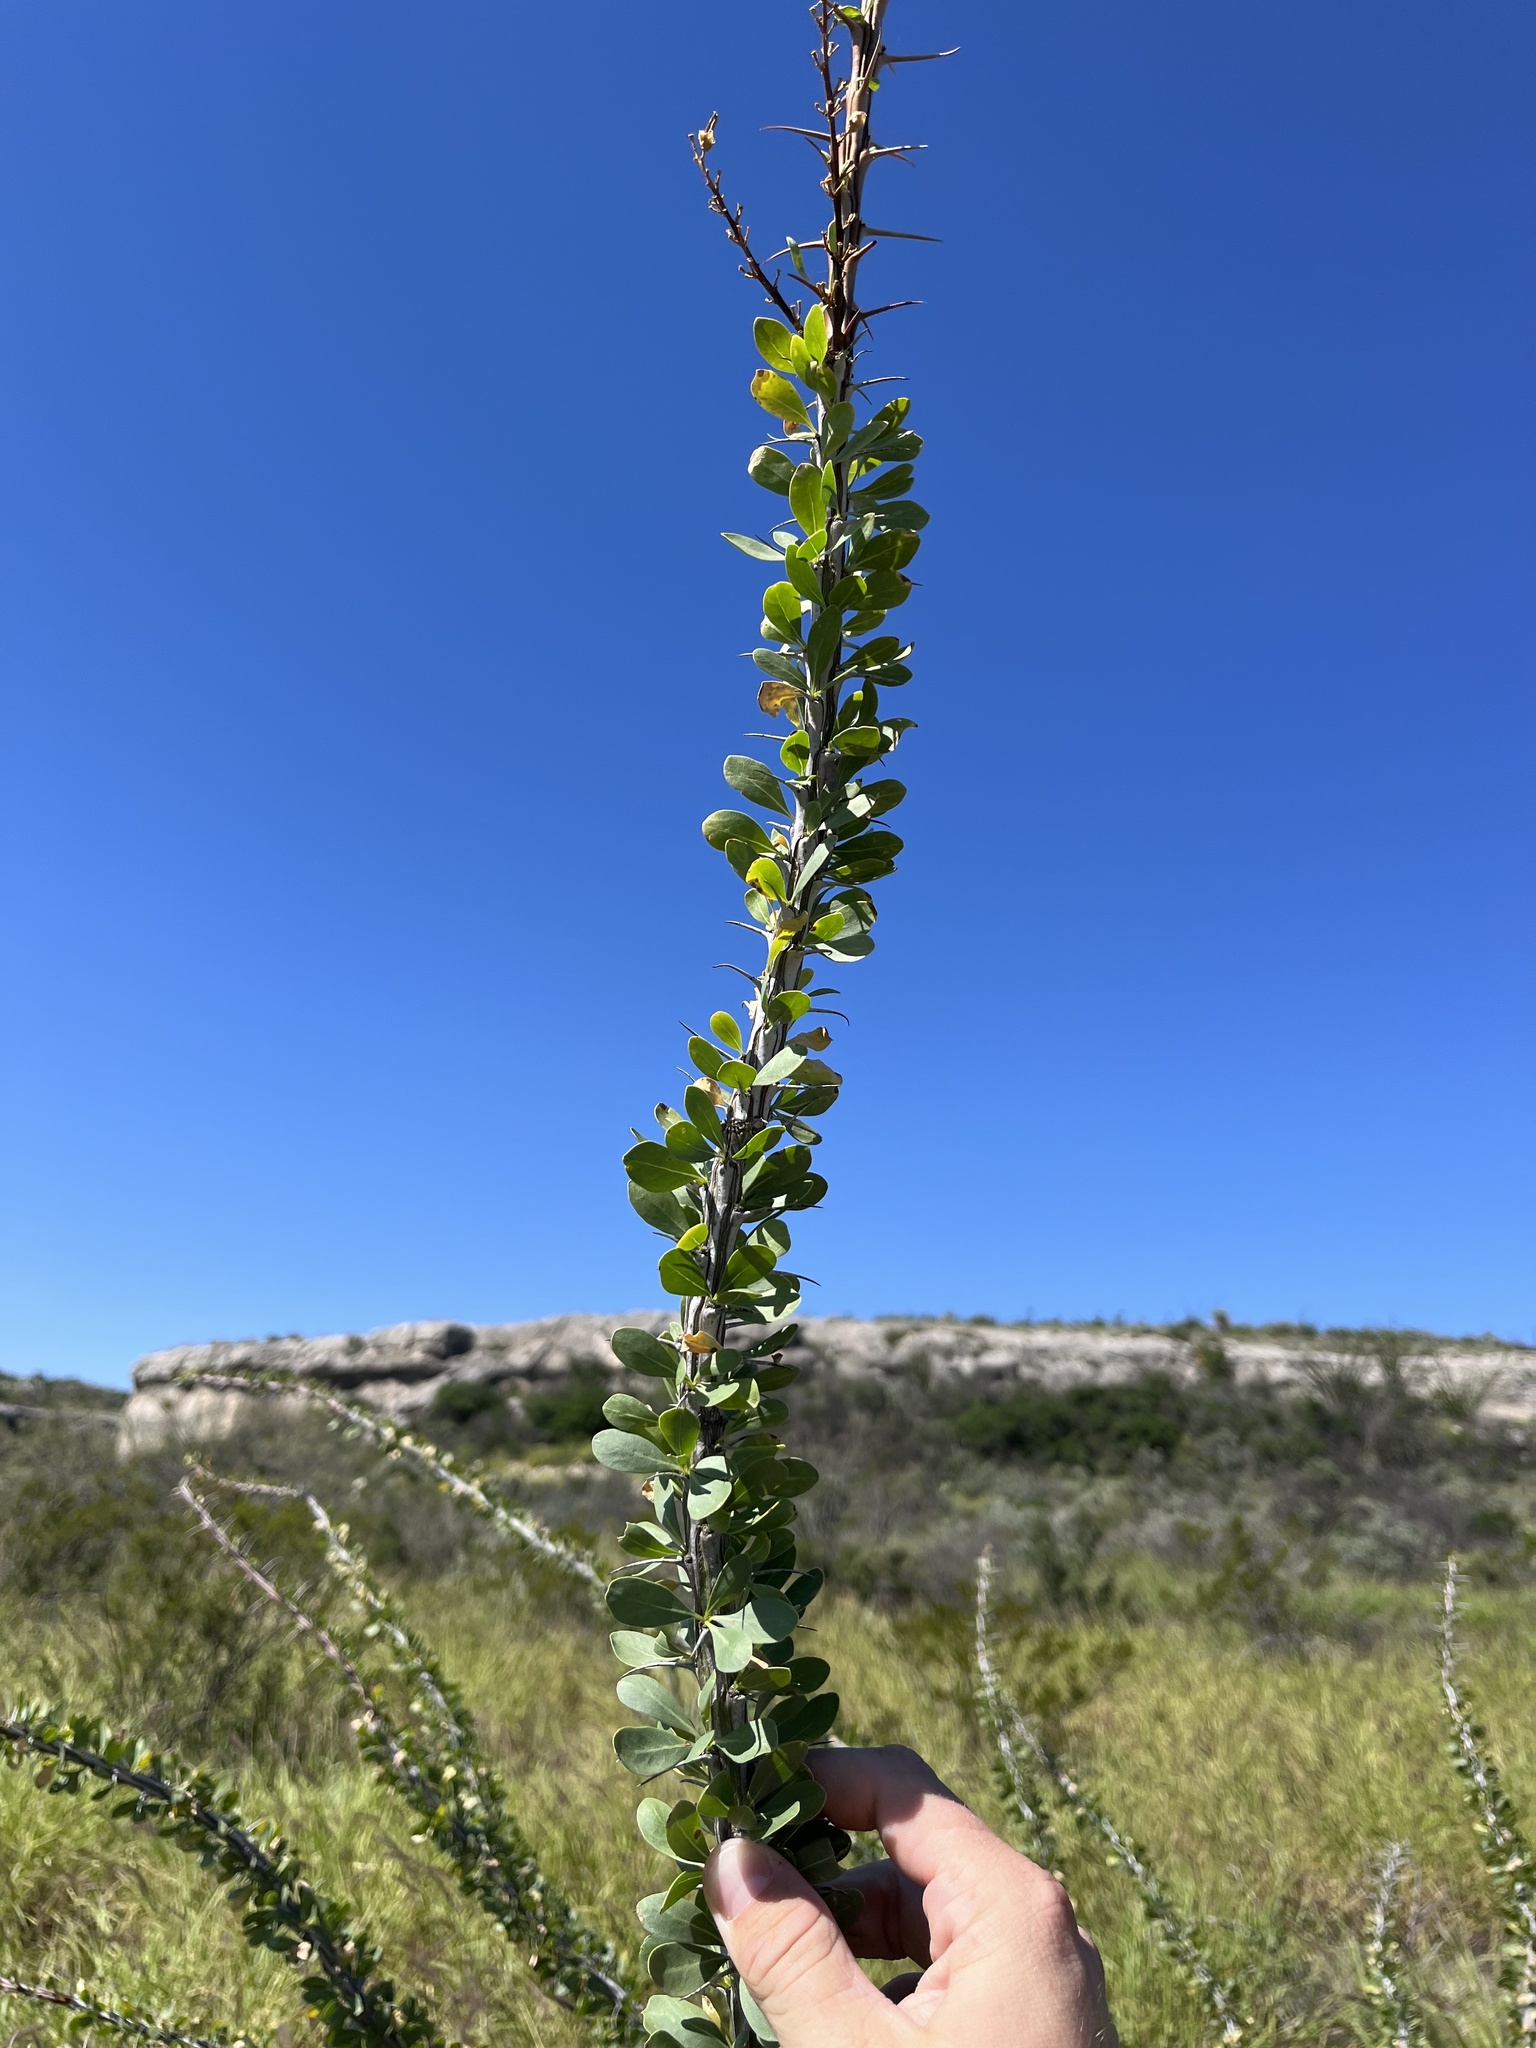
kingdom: Plantae
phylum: Tracheophyta
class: Magnoliopsida
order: Ericales
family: Fouquieriaceae
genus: Fouquieria
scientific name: Fouquieria splendens
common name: Vine-cactus
